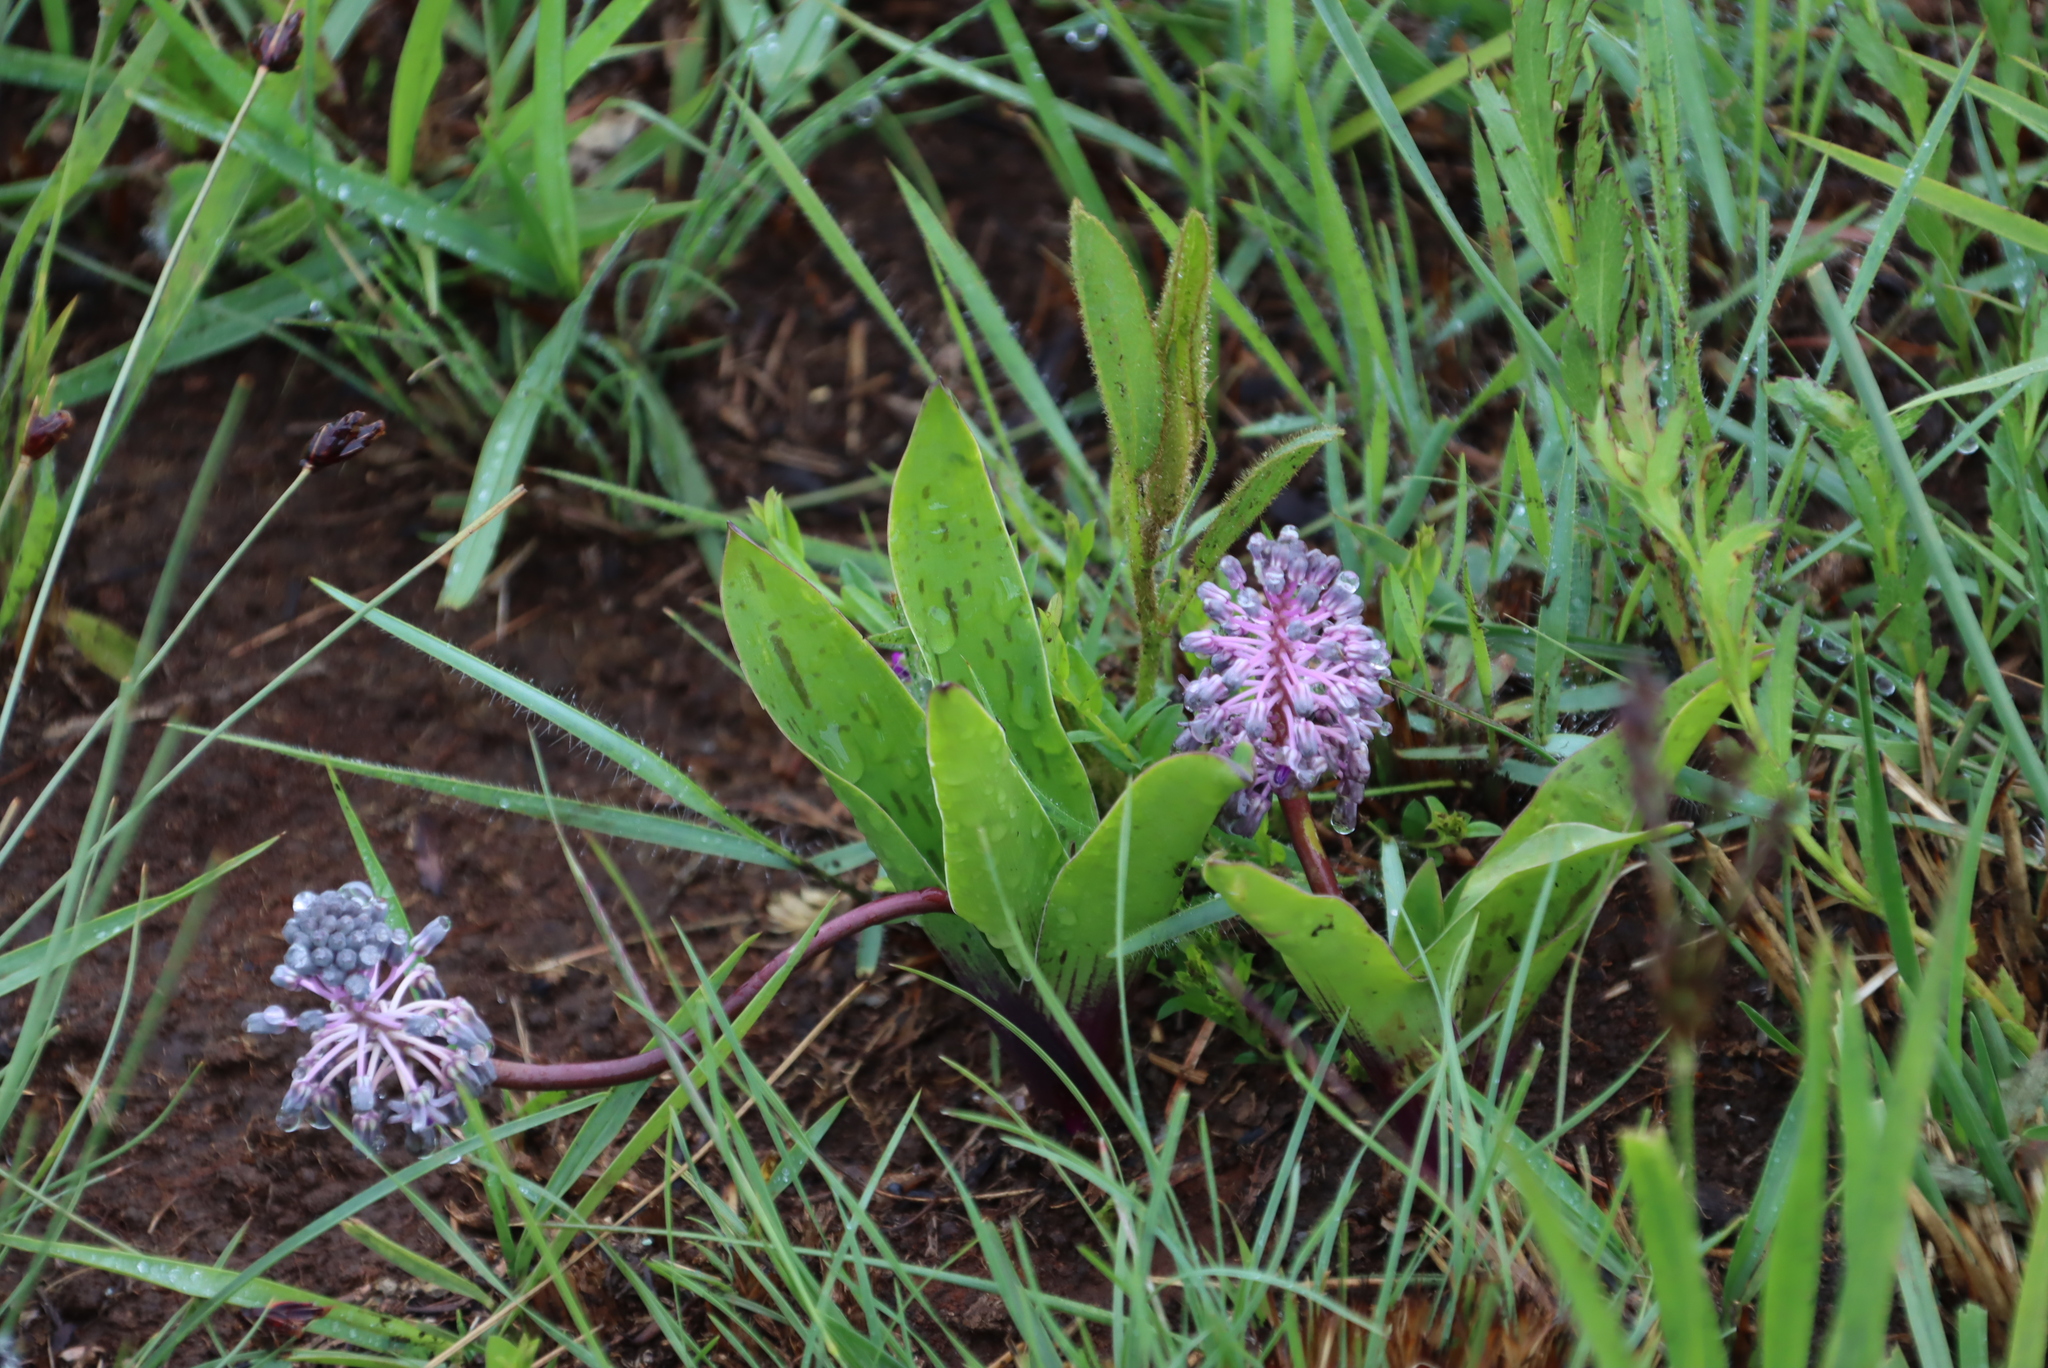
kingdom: Plantae
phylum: Tracheophyta
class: Liliopsida
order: Asparagales
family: Asparagaceae
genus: Ledebouria
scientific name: Ledebouria sandersonii
